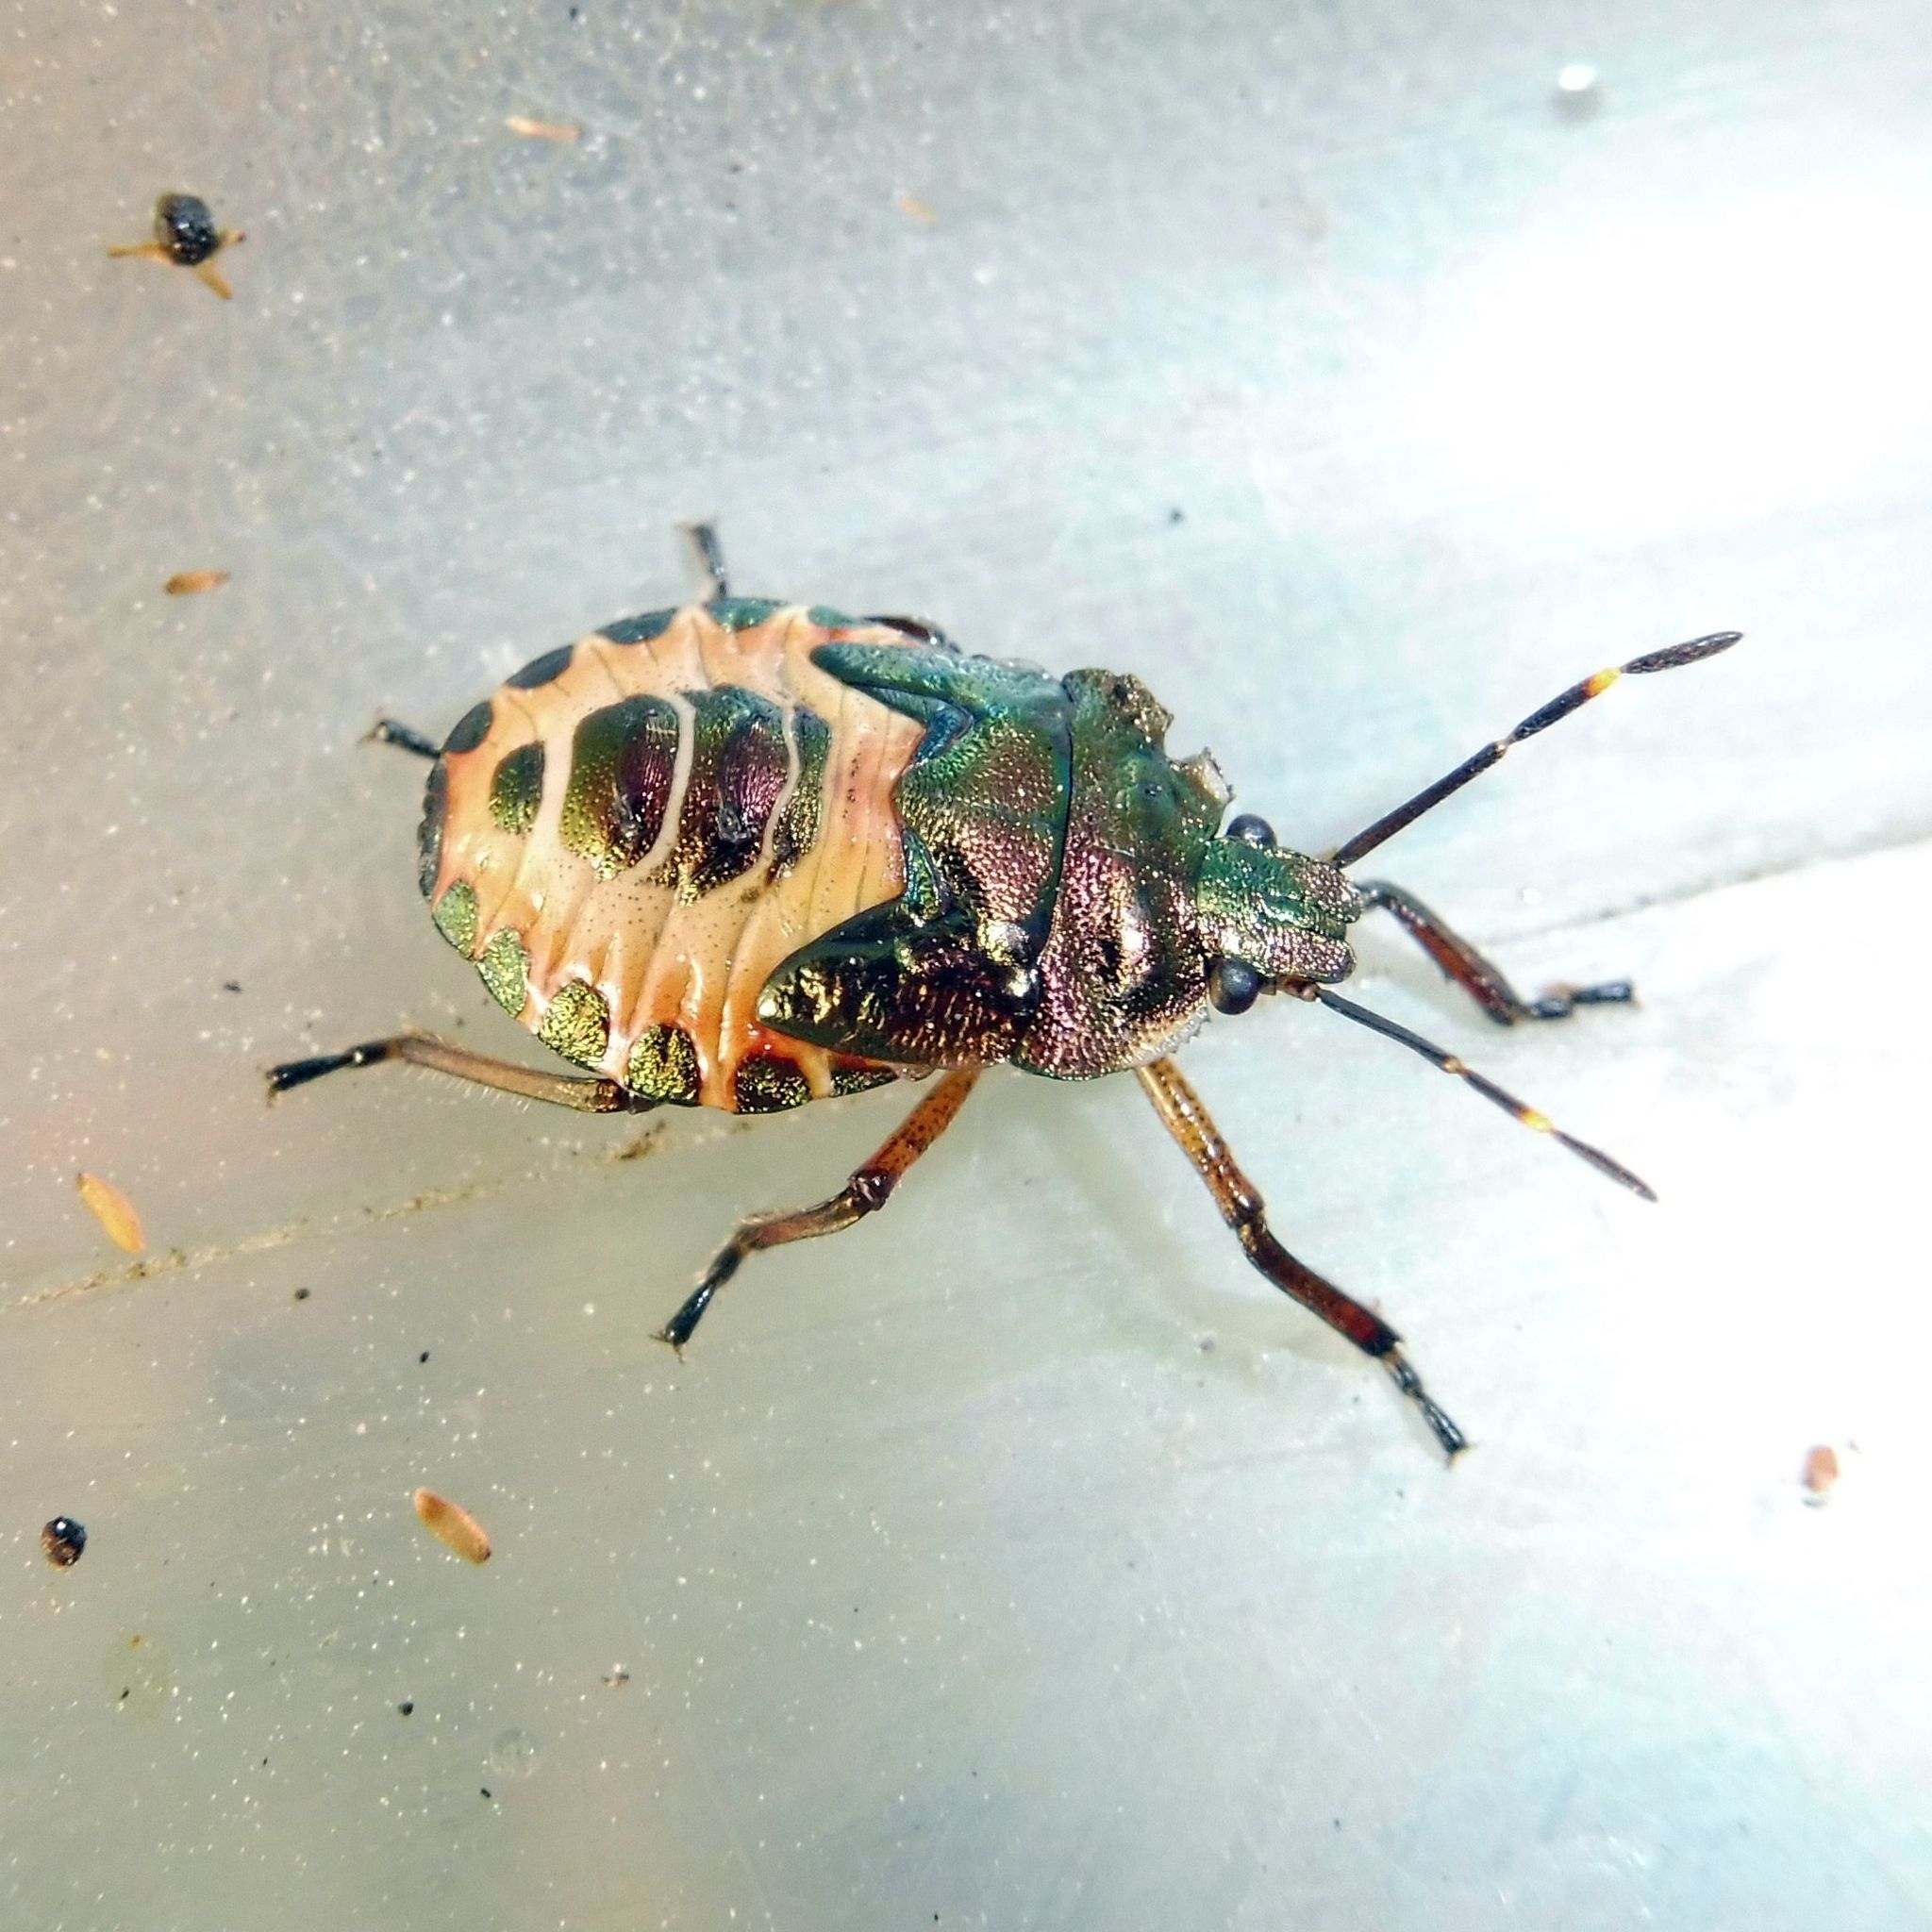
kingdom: Animalia
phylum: Arthropoda
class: Insecta
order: Hemiptera
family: Pentatomidae
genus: Troilus
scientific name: Troilus luridus
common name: Bronze shieldbug
